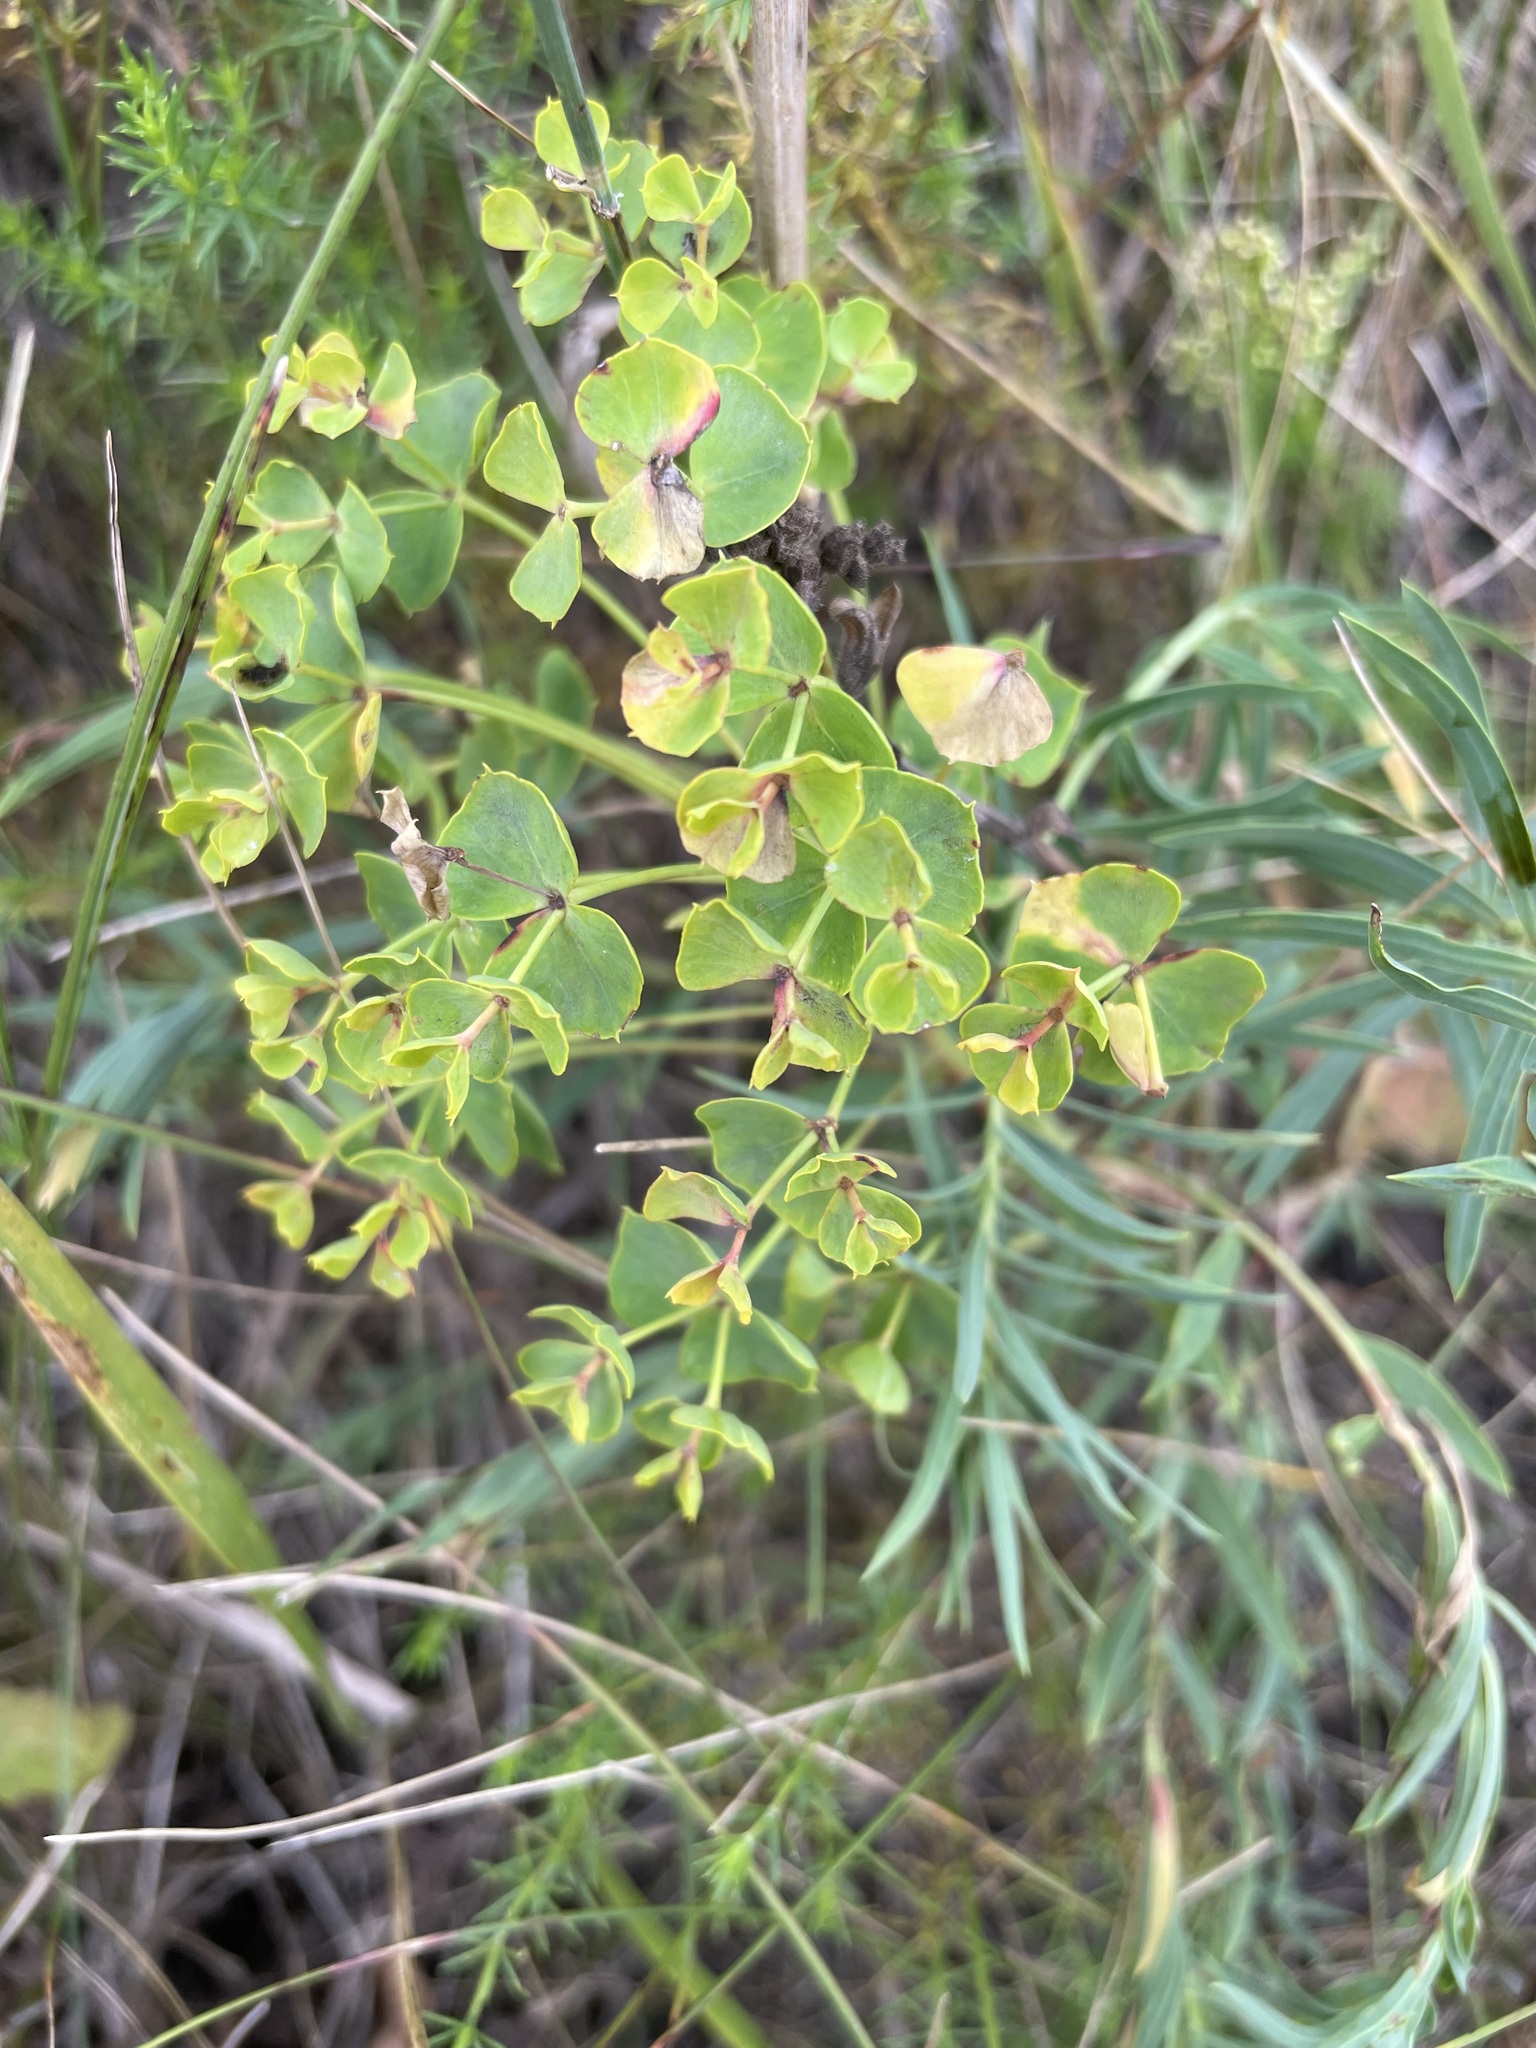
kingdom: Plantae
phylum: Tracheophyta
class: Magnoliopsida
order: Malpighiales
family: Euphorbiaceae
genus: Euphorbia
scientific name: Euphorbia virgata
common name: Leafy spurge
